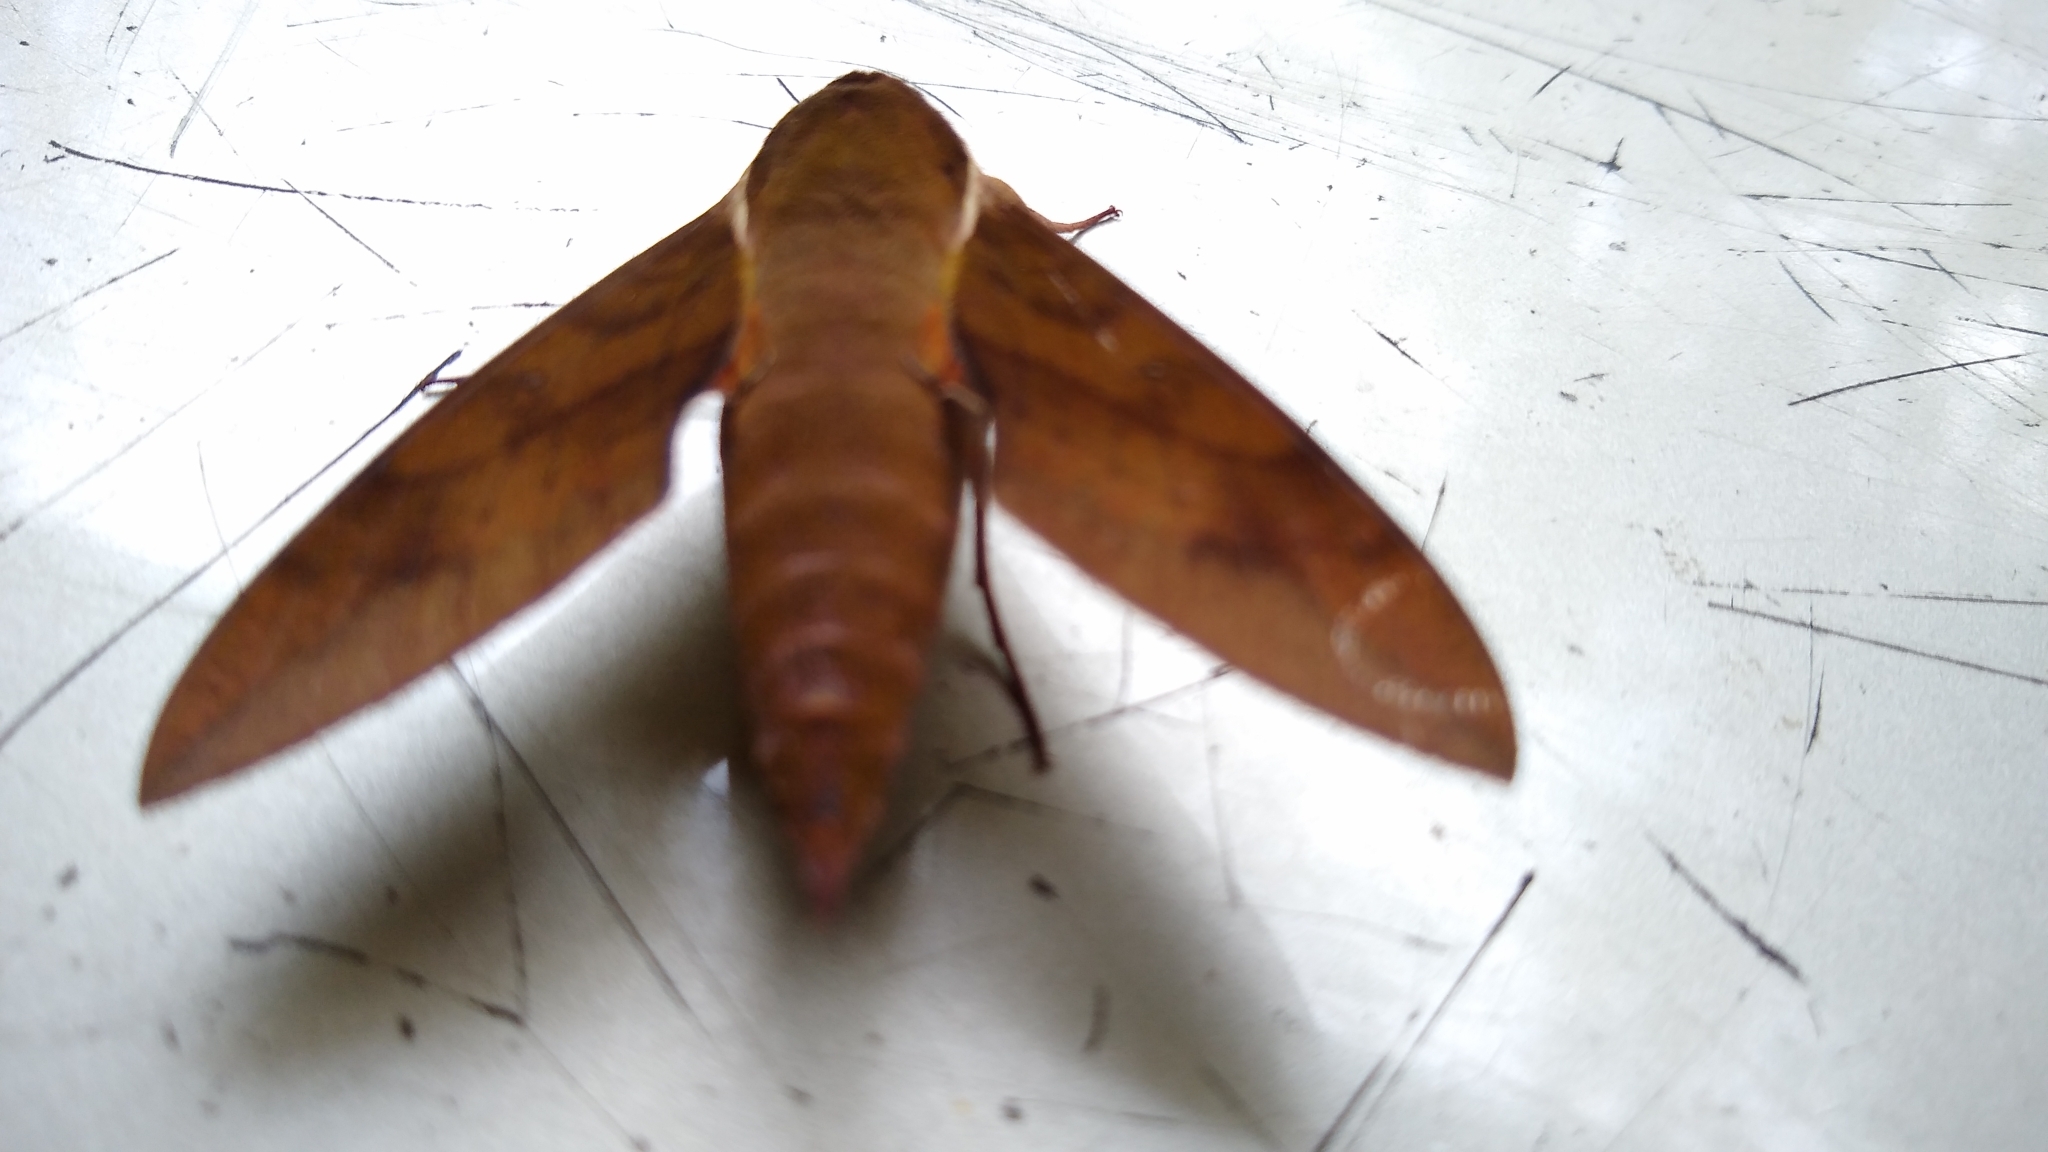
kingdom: Animalia
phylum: Arthropoda
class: Insecta
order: Lepidoptera
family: Sphingidae
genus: Gnathothlibus
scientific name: Gnathothlibus eras
